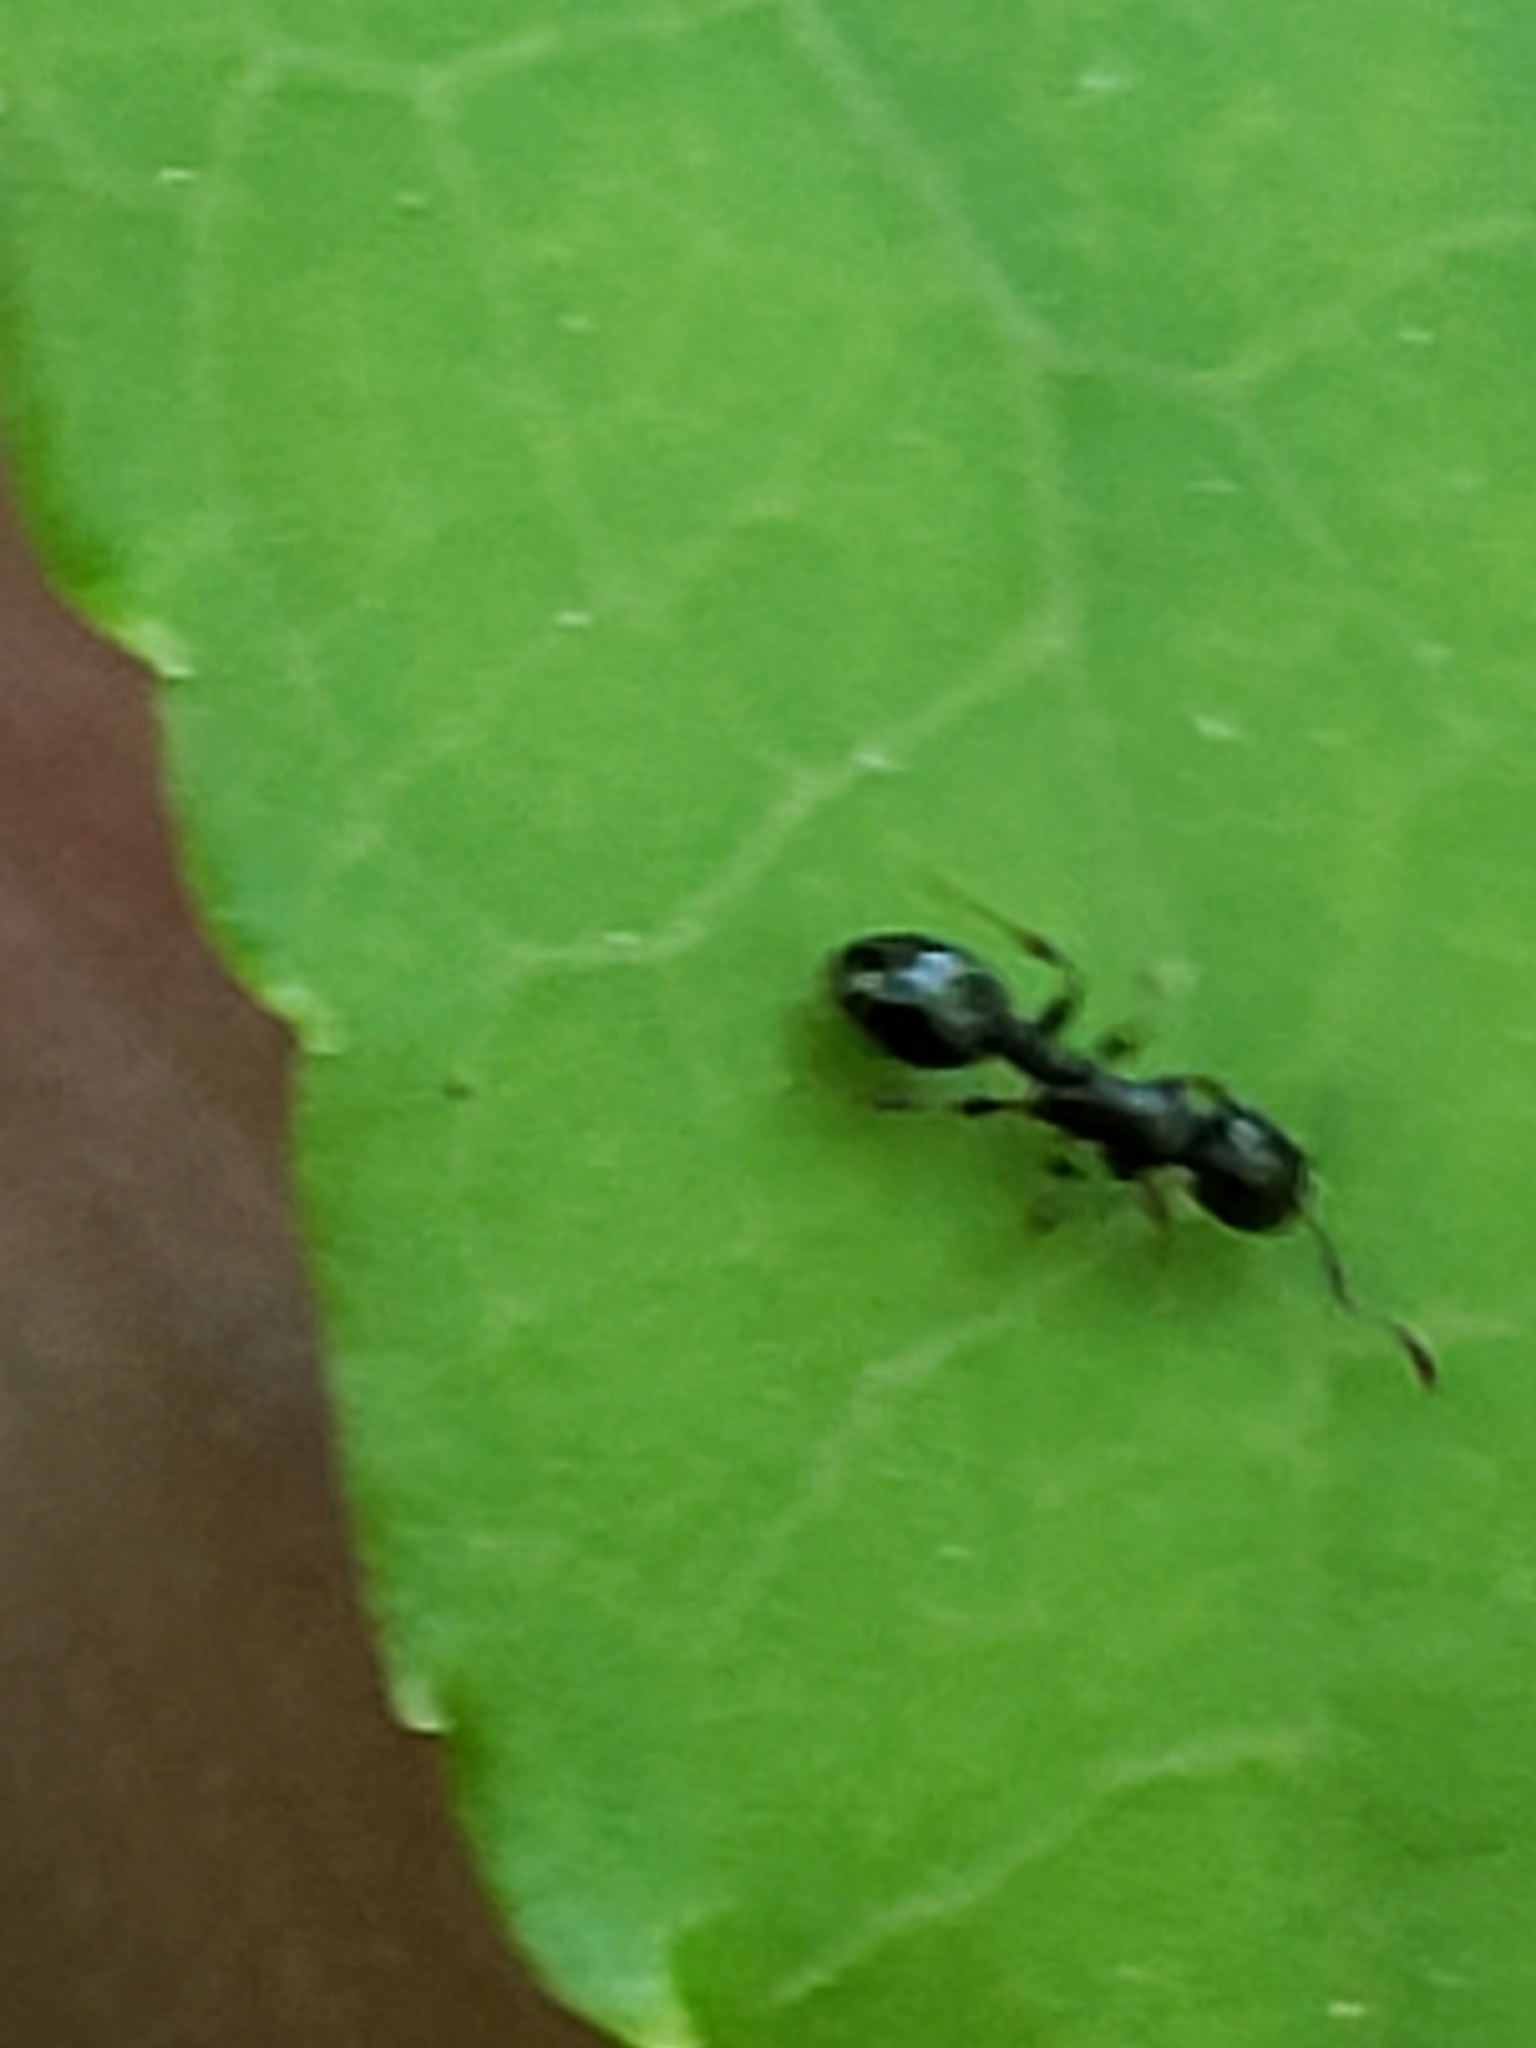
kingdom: Animalia
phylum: Arthropoda
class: Insecta
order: Hymenoptera
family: Formicidae
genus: Temnothorax
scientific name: Temnothorax longispinosus
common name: Long-spined acorn ant
